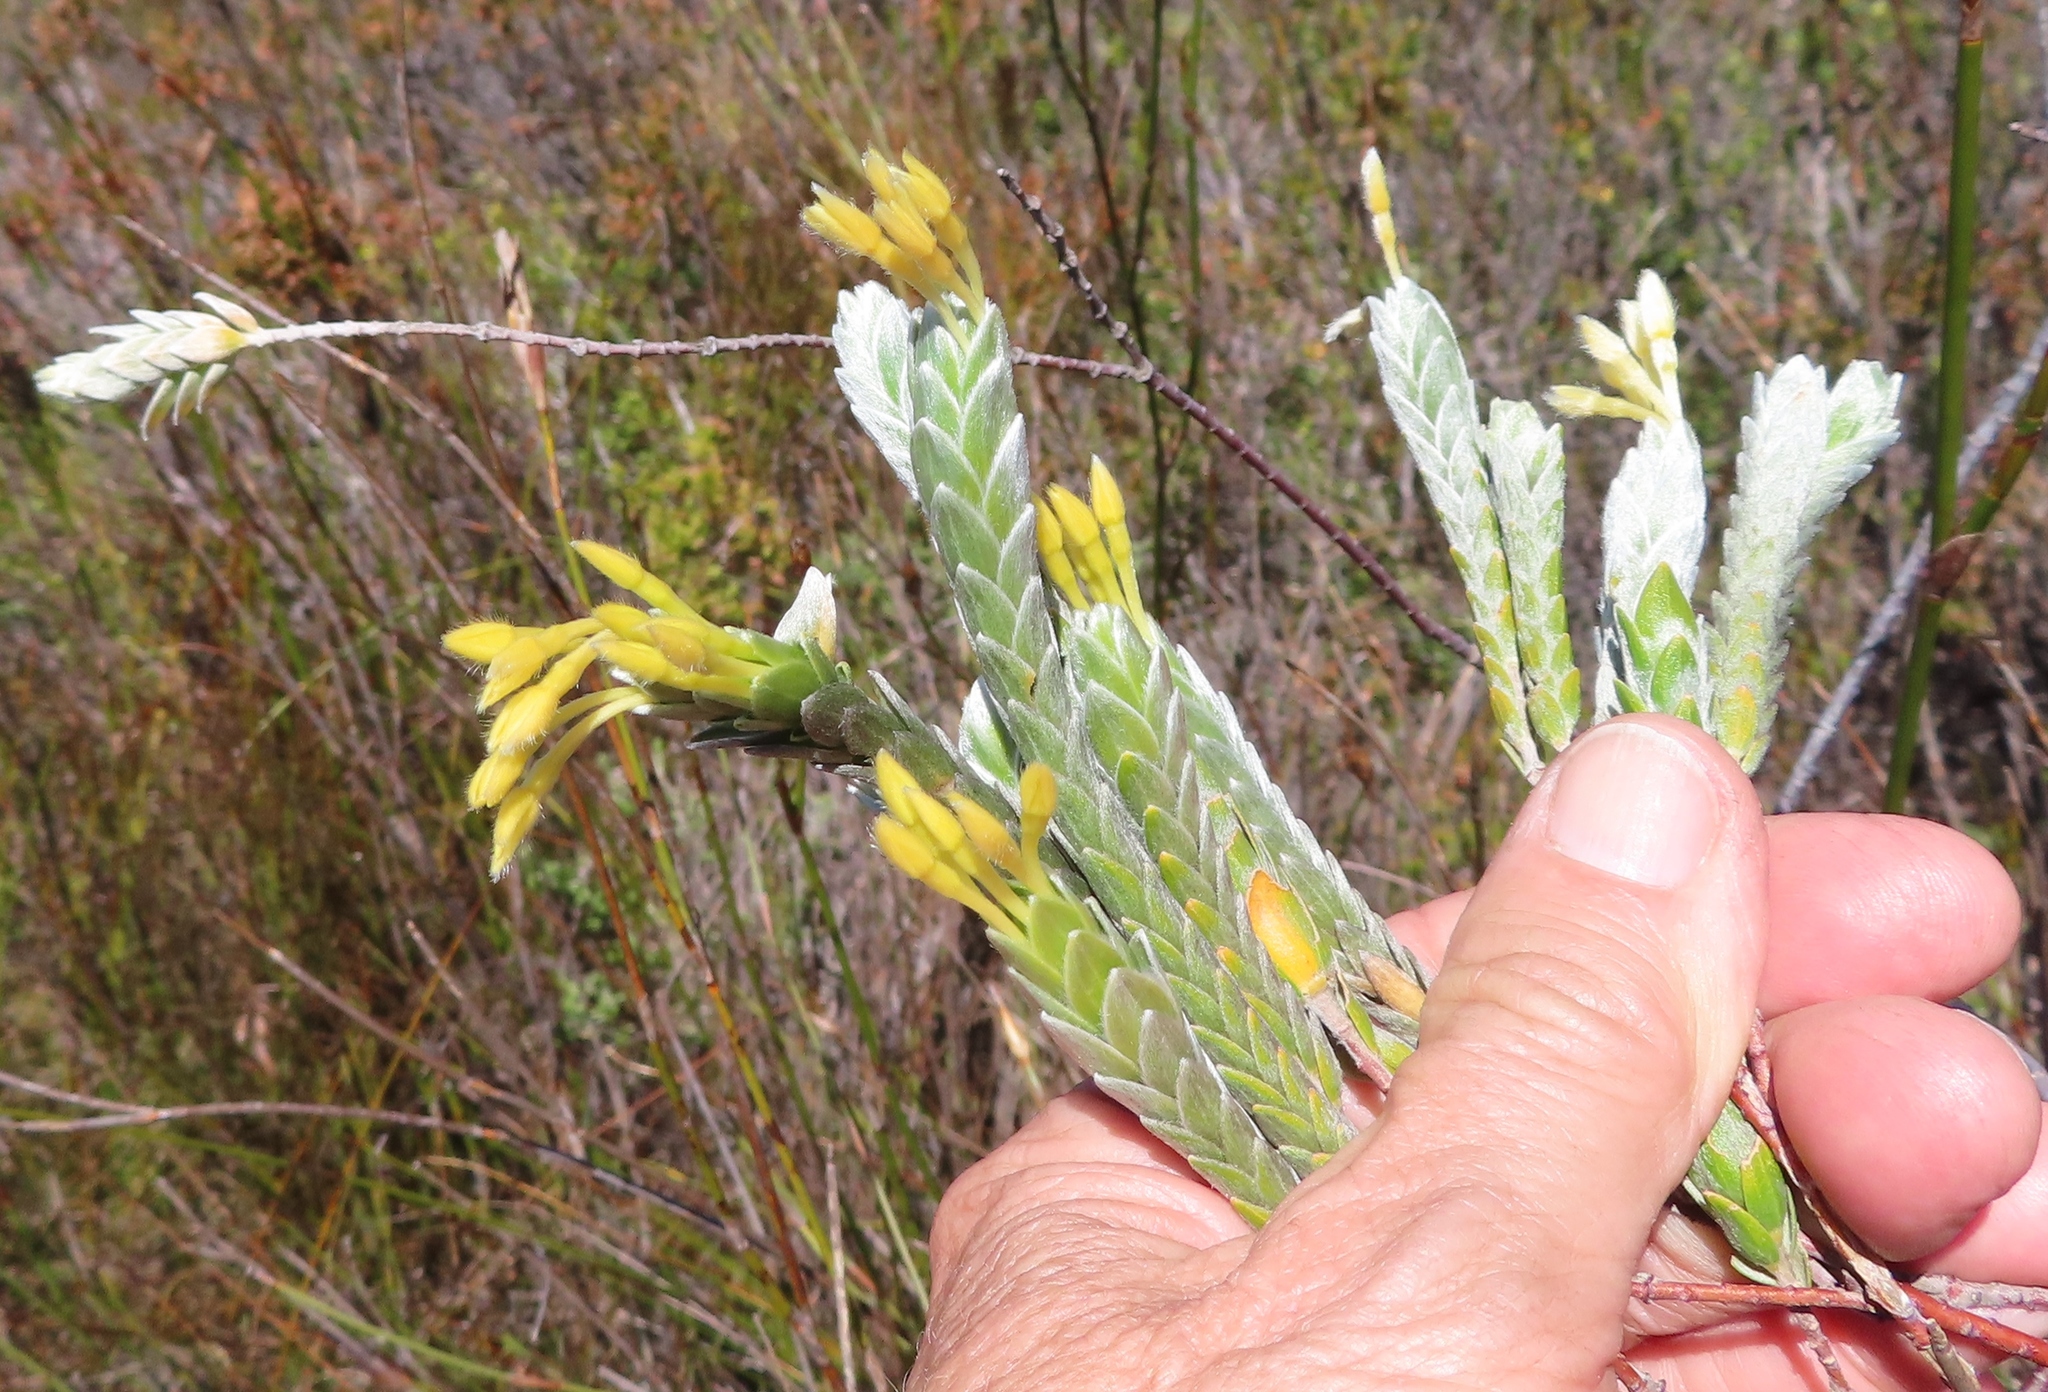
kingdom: Plantae
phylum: Tracheophyta
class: Magnoliopsida
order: Malvales
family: Thymelaeaceae
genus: Gnidia
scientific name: Gnidia anomala
